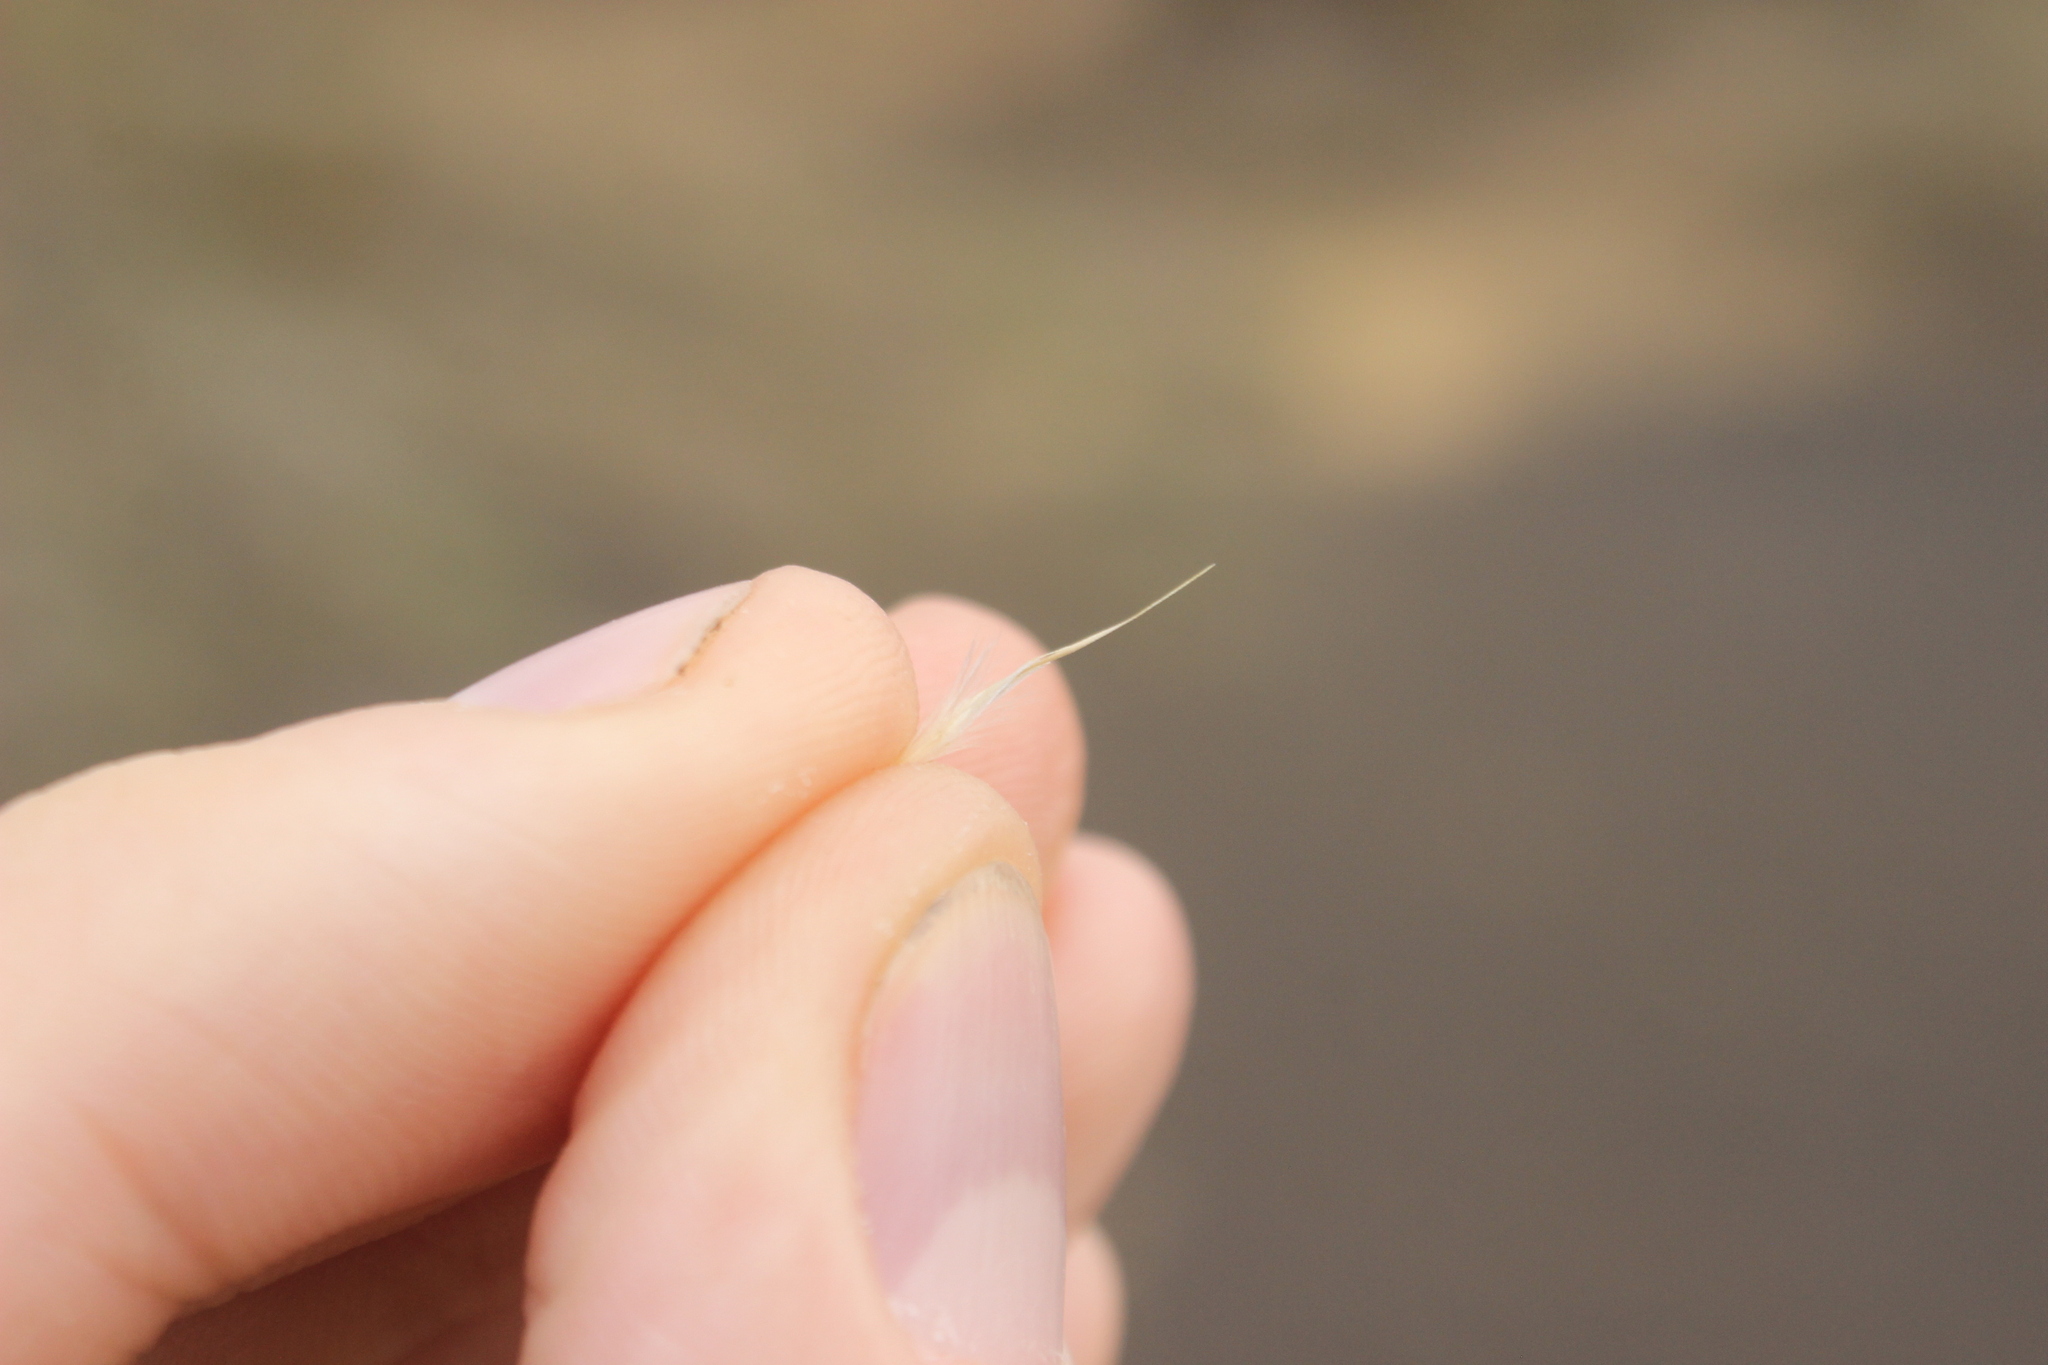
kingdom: Plantae
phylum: Tracheophyta
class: Liliopsida
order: Poales
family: Poaceae
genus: Rytidosperma
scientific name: Rytidosperma setifolium
